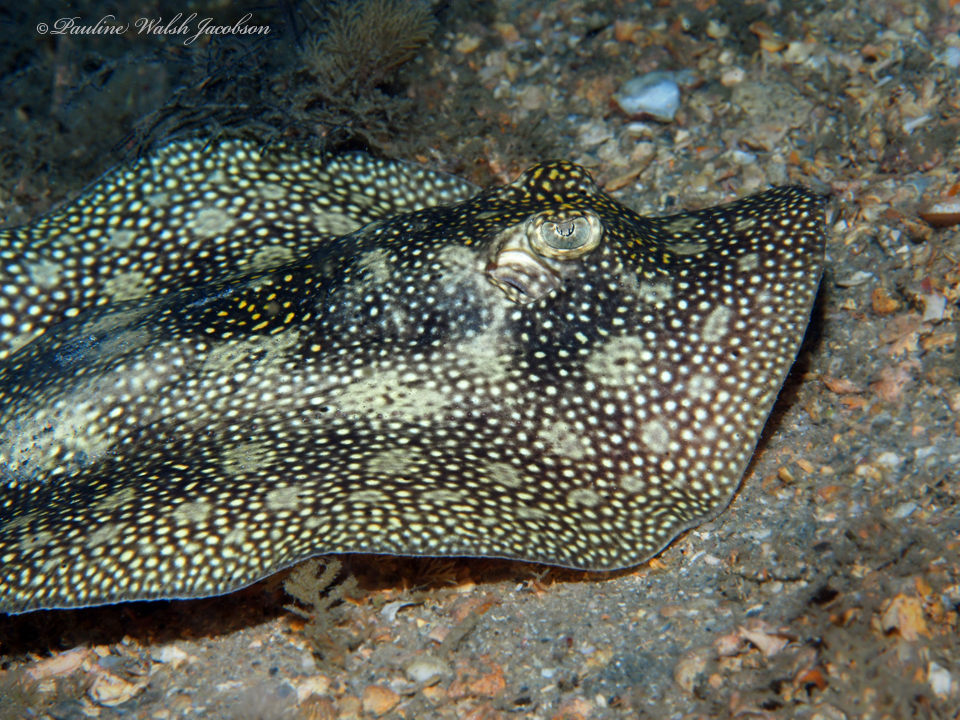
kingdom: Animalia
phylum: Chordata
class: Elasmobranchii
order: Myliobatiformes
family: Urotrygonidae
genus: Urobatis
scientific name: Urobatis jamaicensis
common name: Yellow stingray
